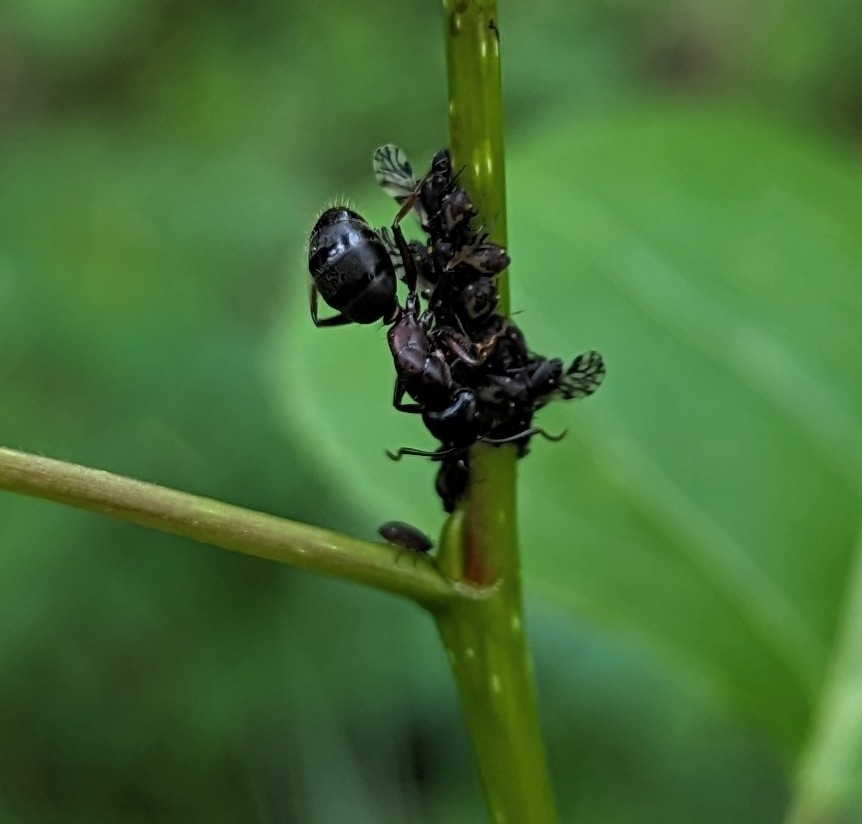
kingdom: Animalia
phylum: Arthropoda
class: Insecta
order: Hymenoptera
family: Formicidae
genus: Camponotus
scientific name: Camponotus herculeanus
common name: Hercules ant
